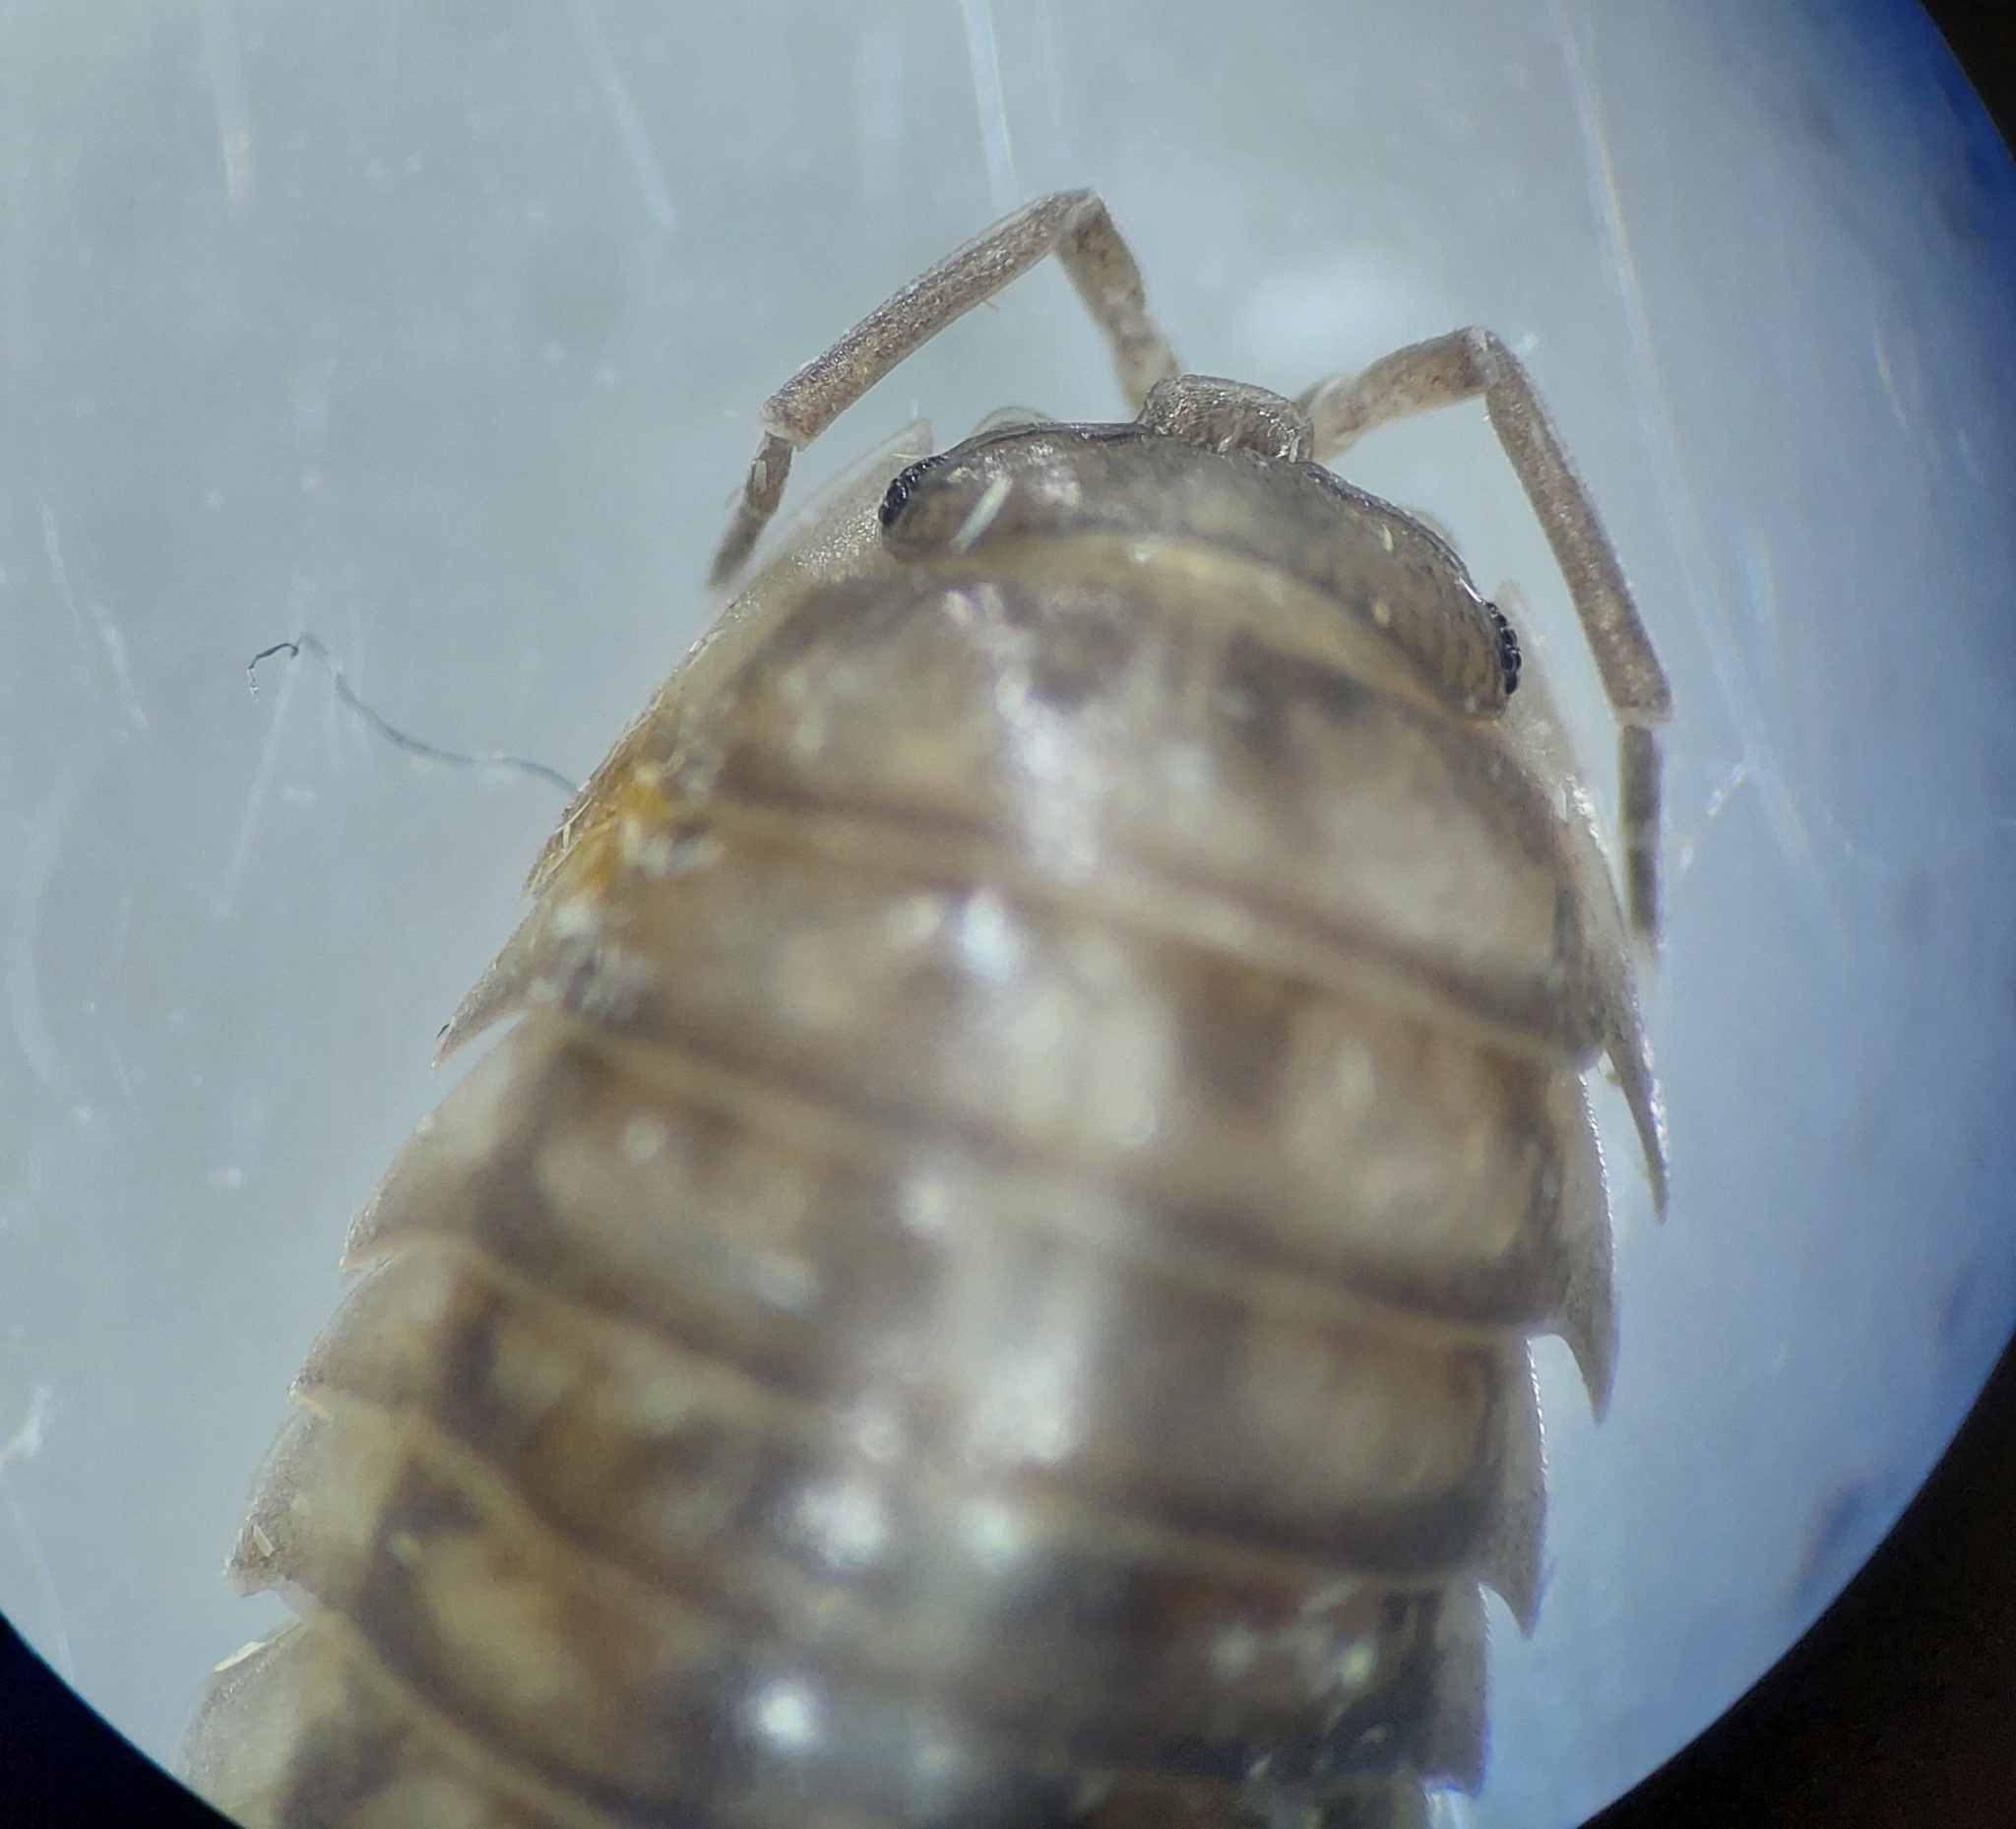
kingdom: Animalia
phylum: Arthropoda
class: Malacostraca
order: Isopoda
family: Armadillidiidae
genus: Armadillidium
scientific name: Armadillidium nasatum
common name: Isopod
